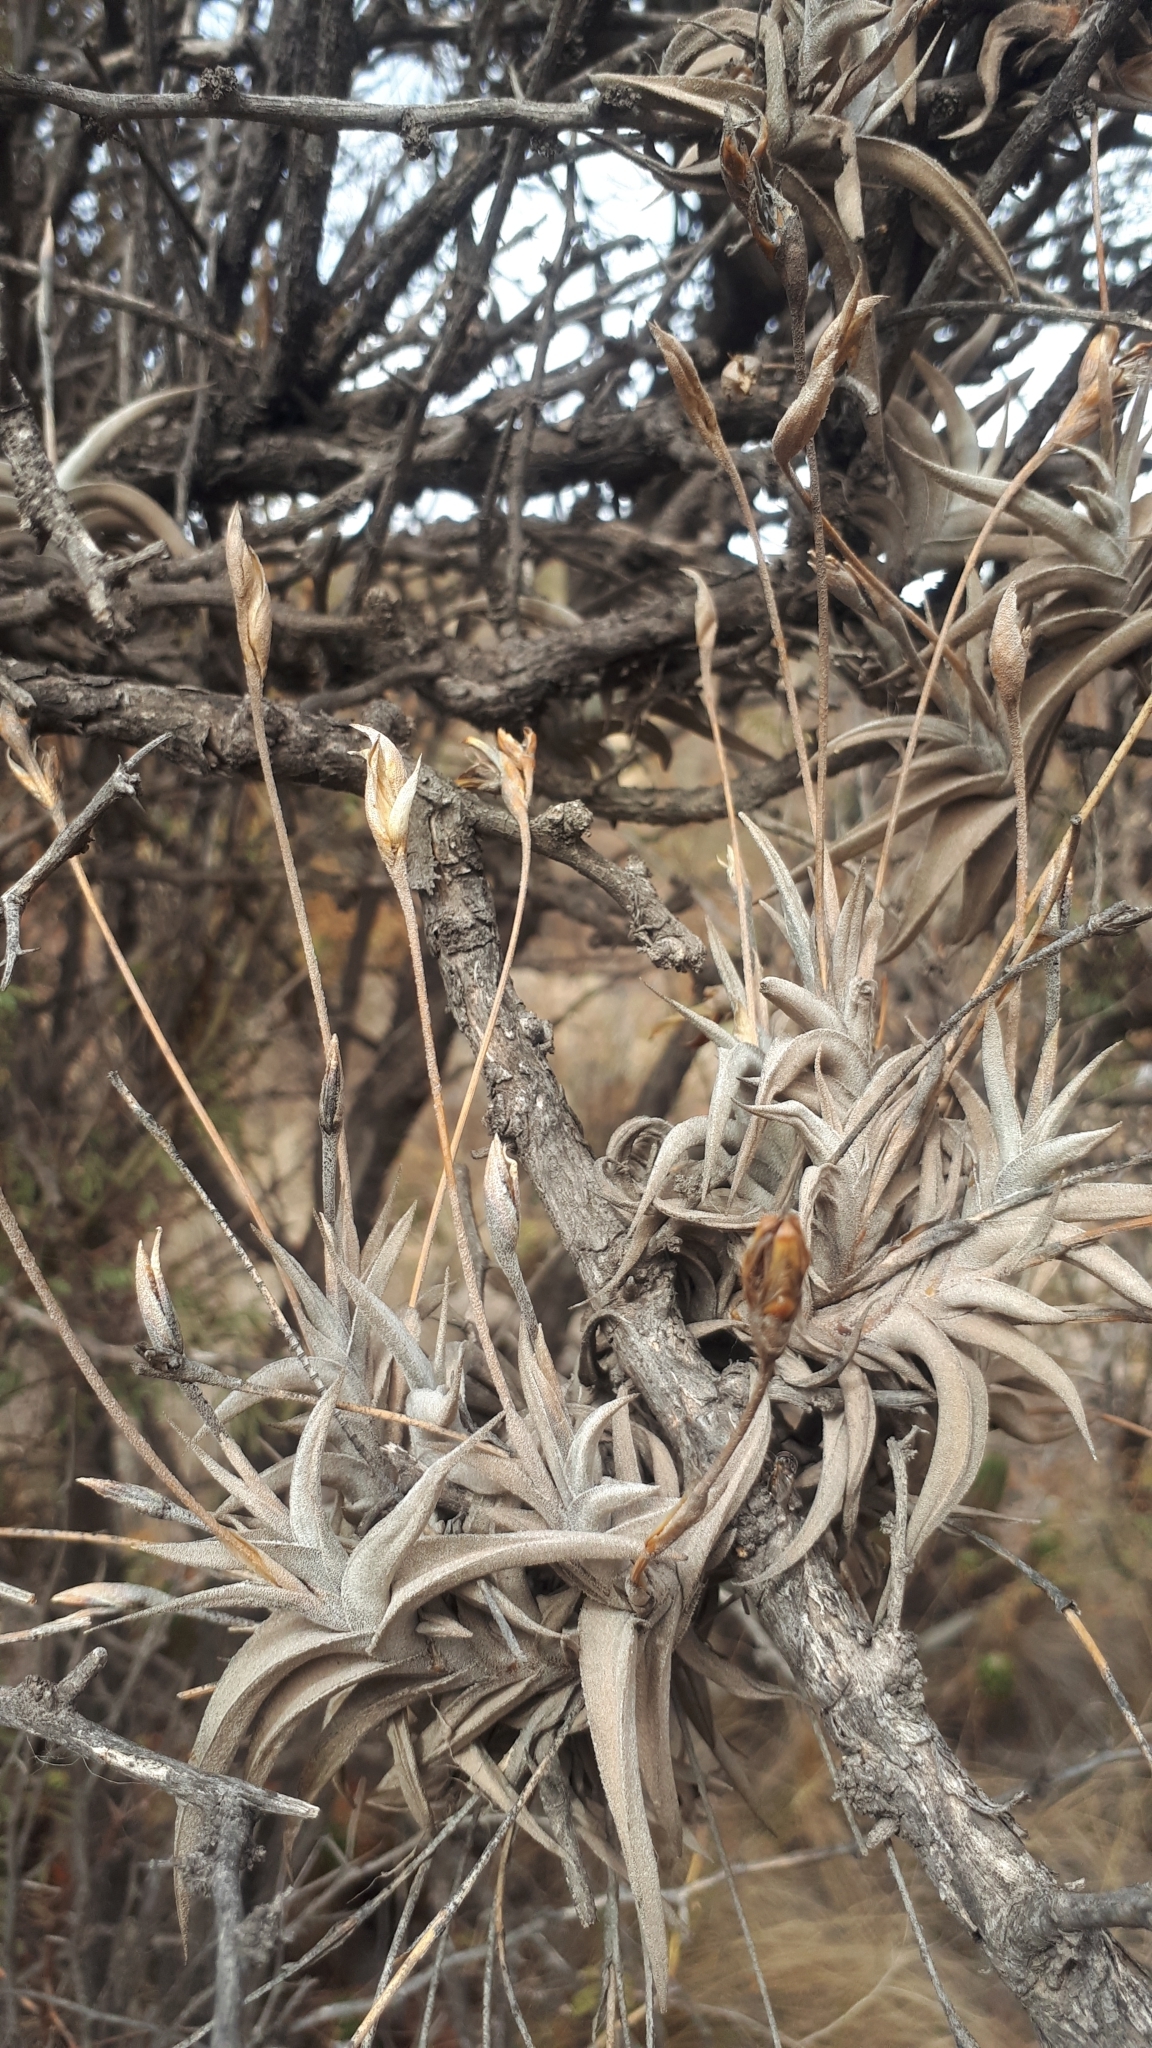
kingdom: Plantae
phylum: Tracheophyta
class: Liliopsida
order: Poales
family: Bromeliaceae
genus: Tillandsia
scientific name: Tillandsia gilliesii
